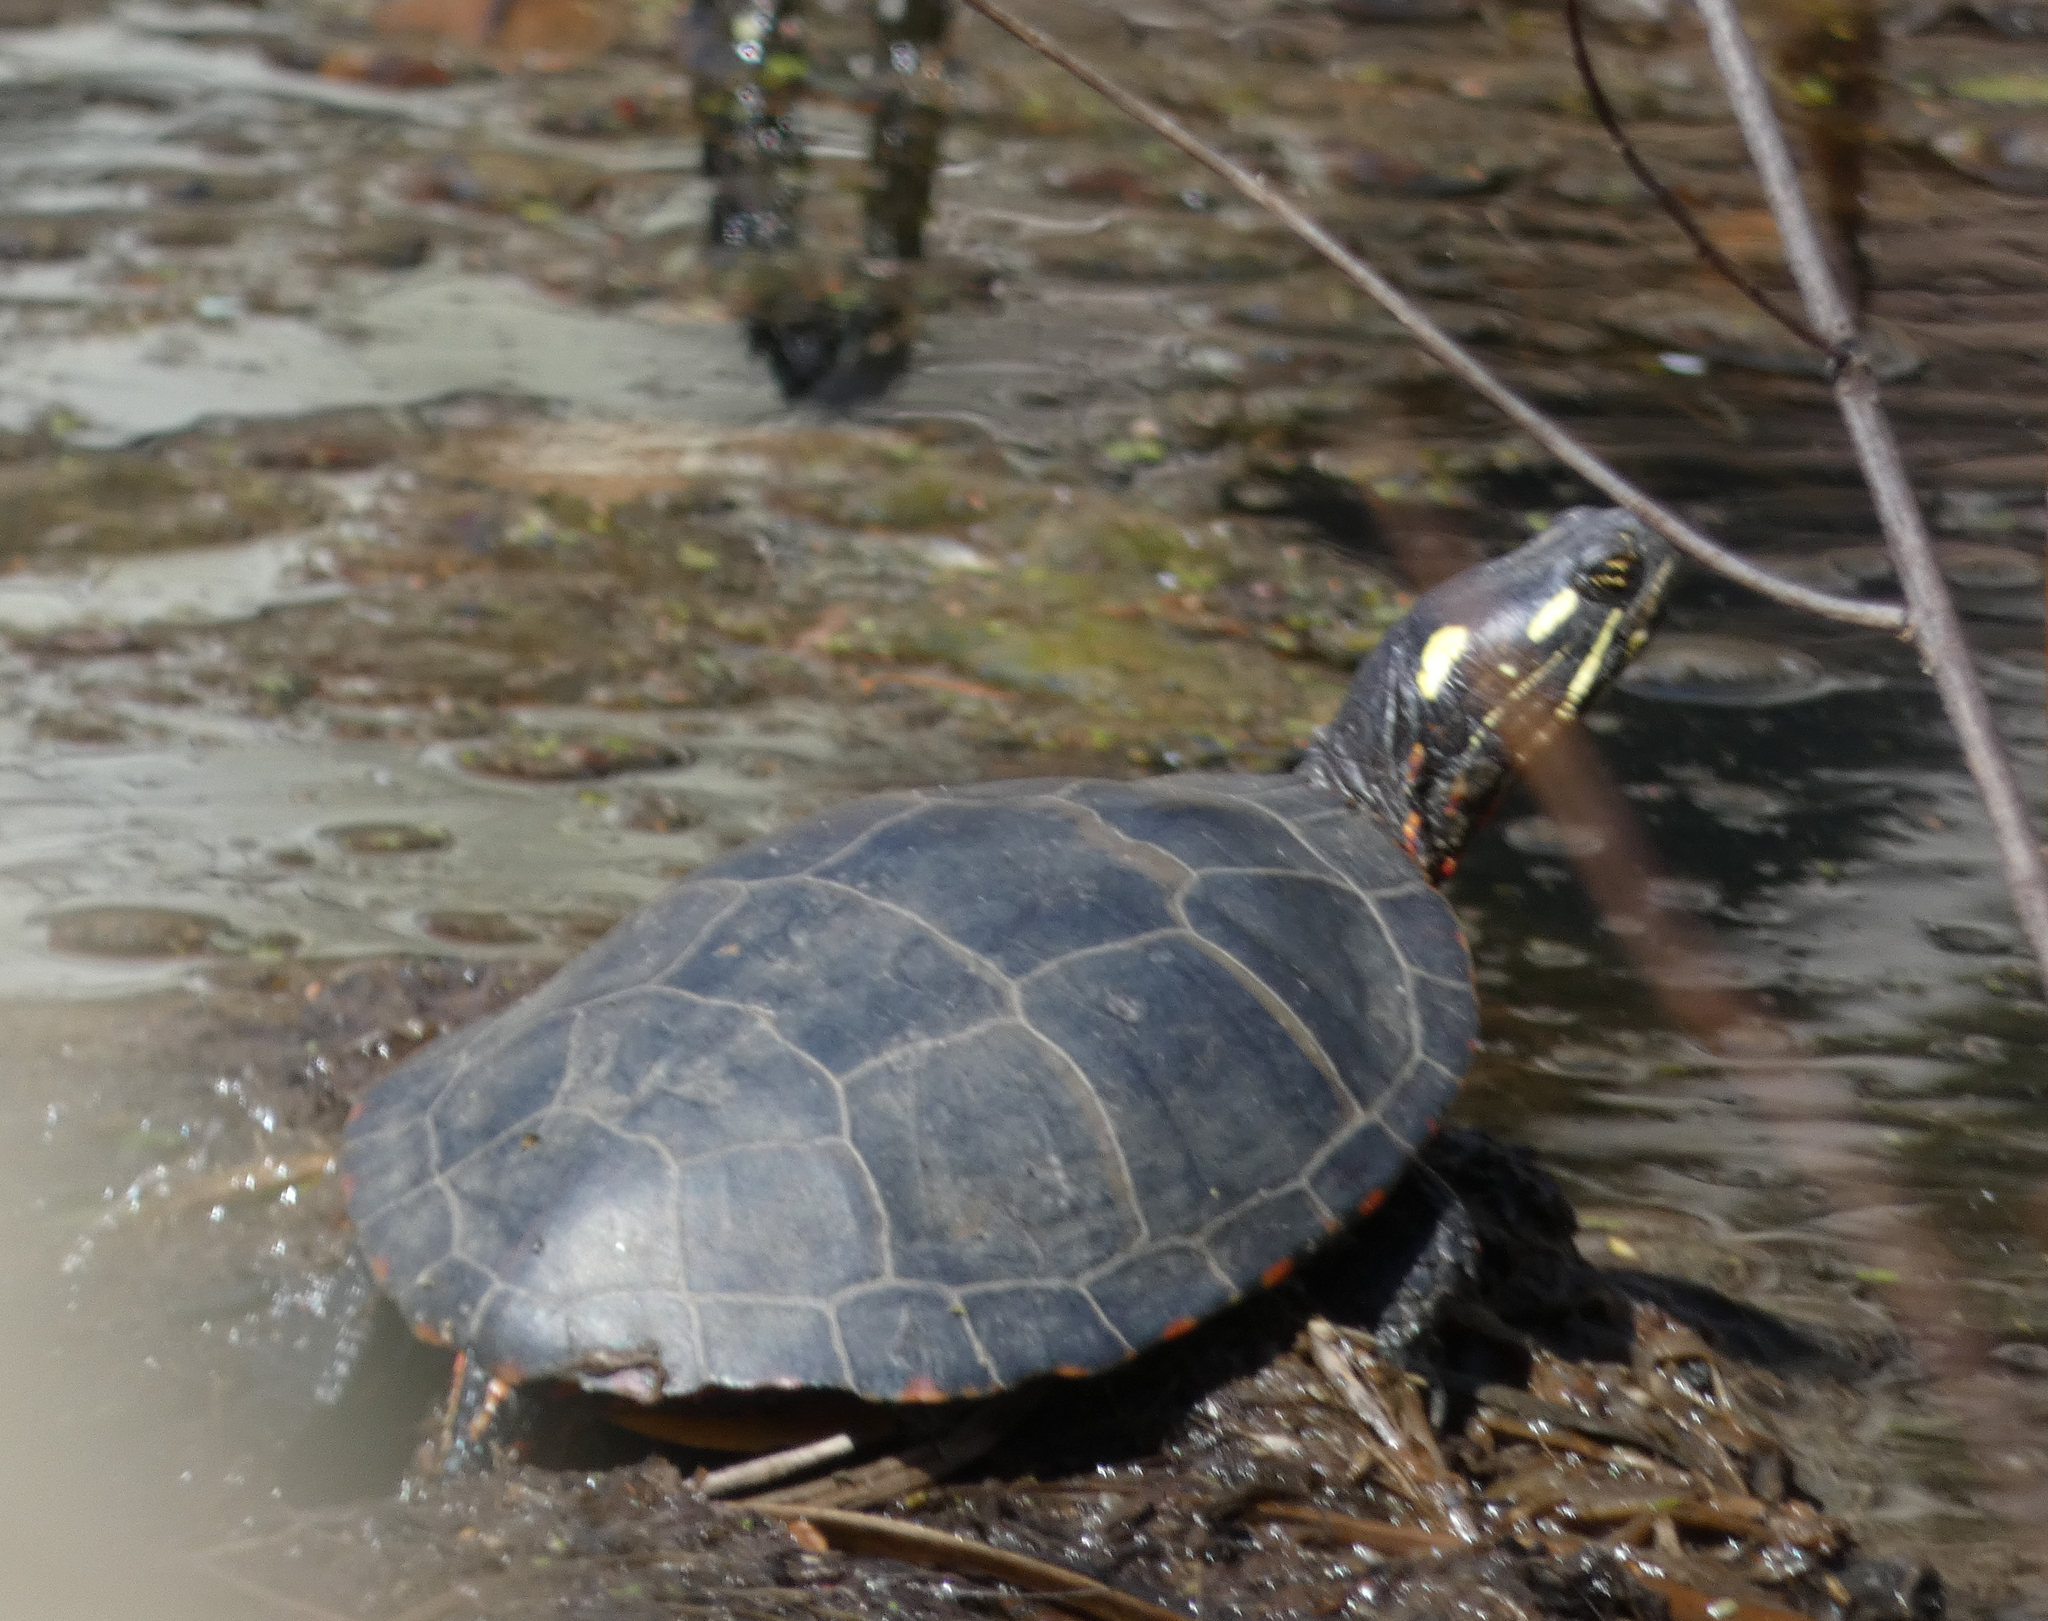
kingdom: Animalia
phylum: Chordata
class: Testudines
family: Emydidae
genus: Chrysemys
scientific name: Chrysemys picta
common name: Painted turtle
